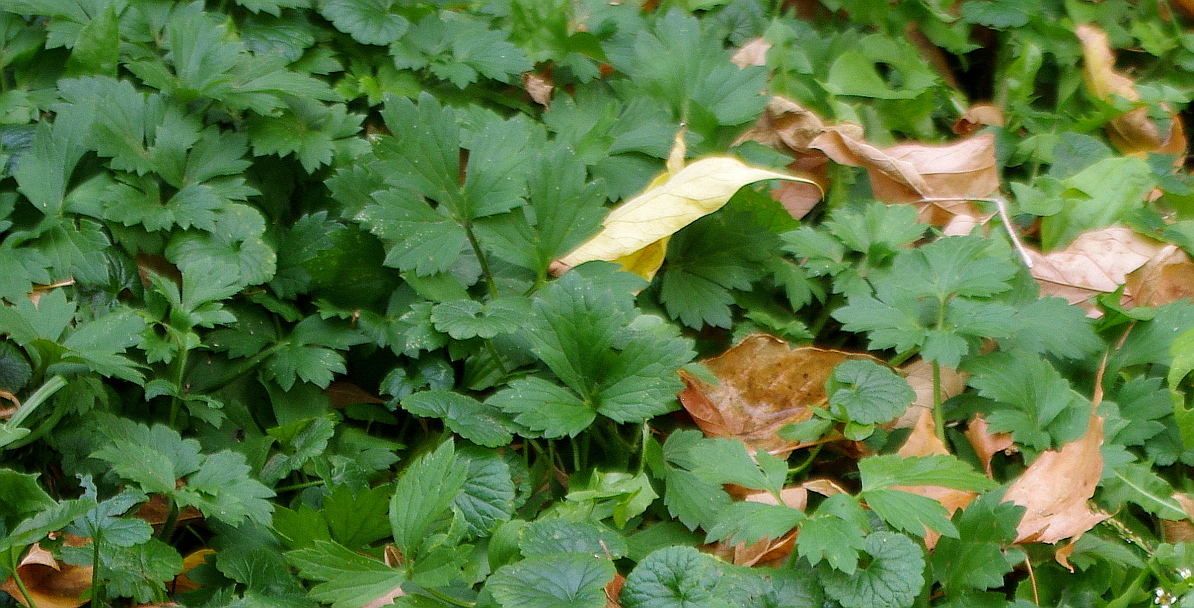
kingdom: Plantae
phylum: Tracheophyta
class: Magnoliopsida
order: Ranunculales
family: Ranunculaceae
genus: Ranunculus
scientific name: Ranunculus repens
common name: Creeping buttercup
